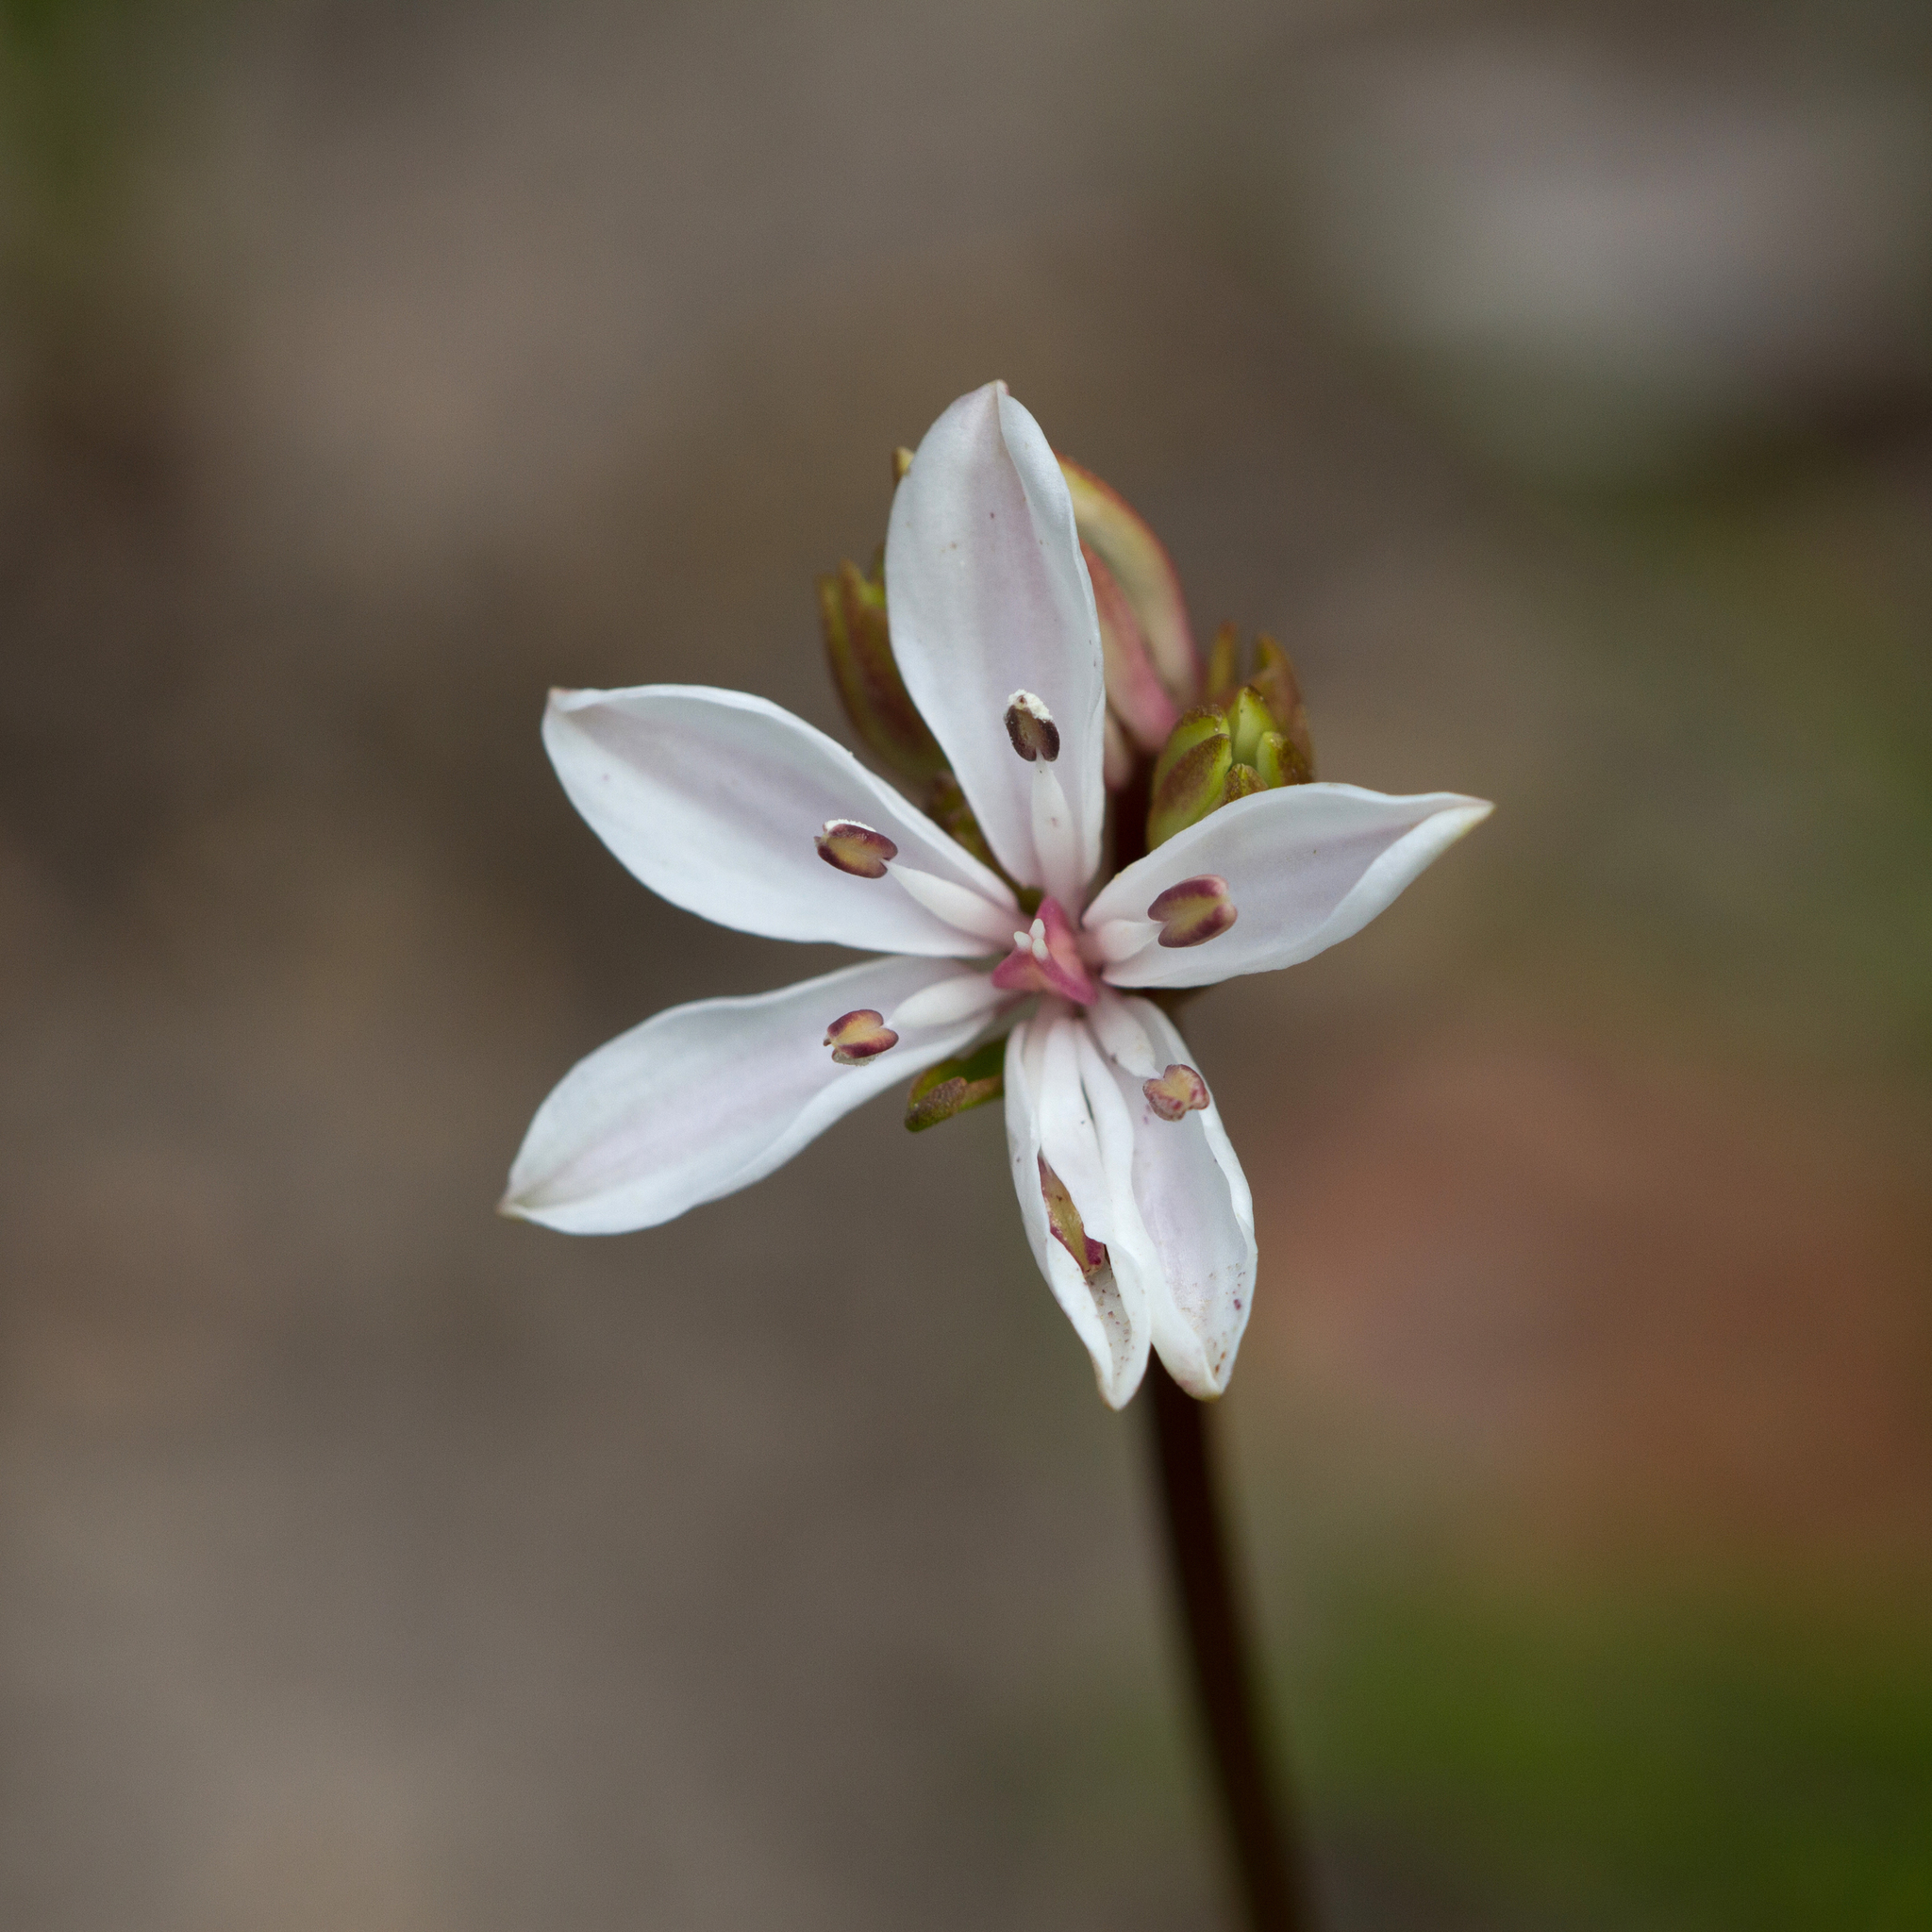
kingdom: Plantae
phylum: Tracheophyta
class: Liliopsida
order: Liliales
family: Colchicaceae
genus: Burchardia
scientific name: Burchardia umbellata
